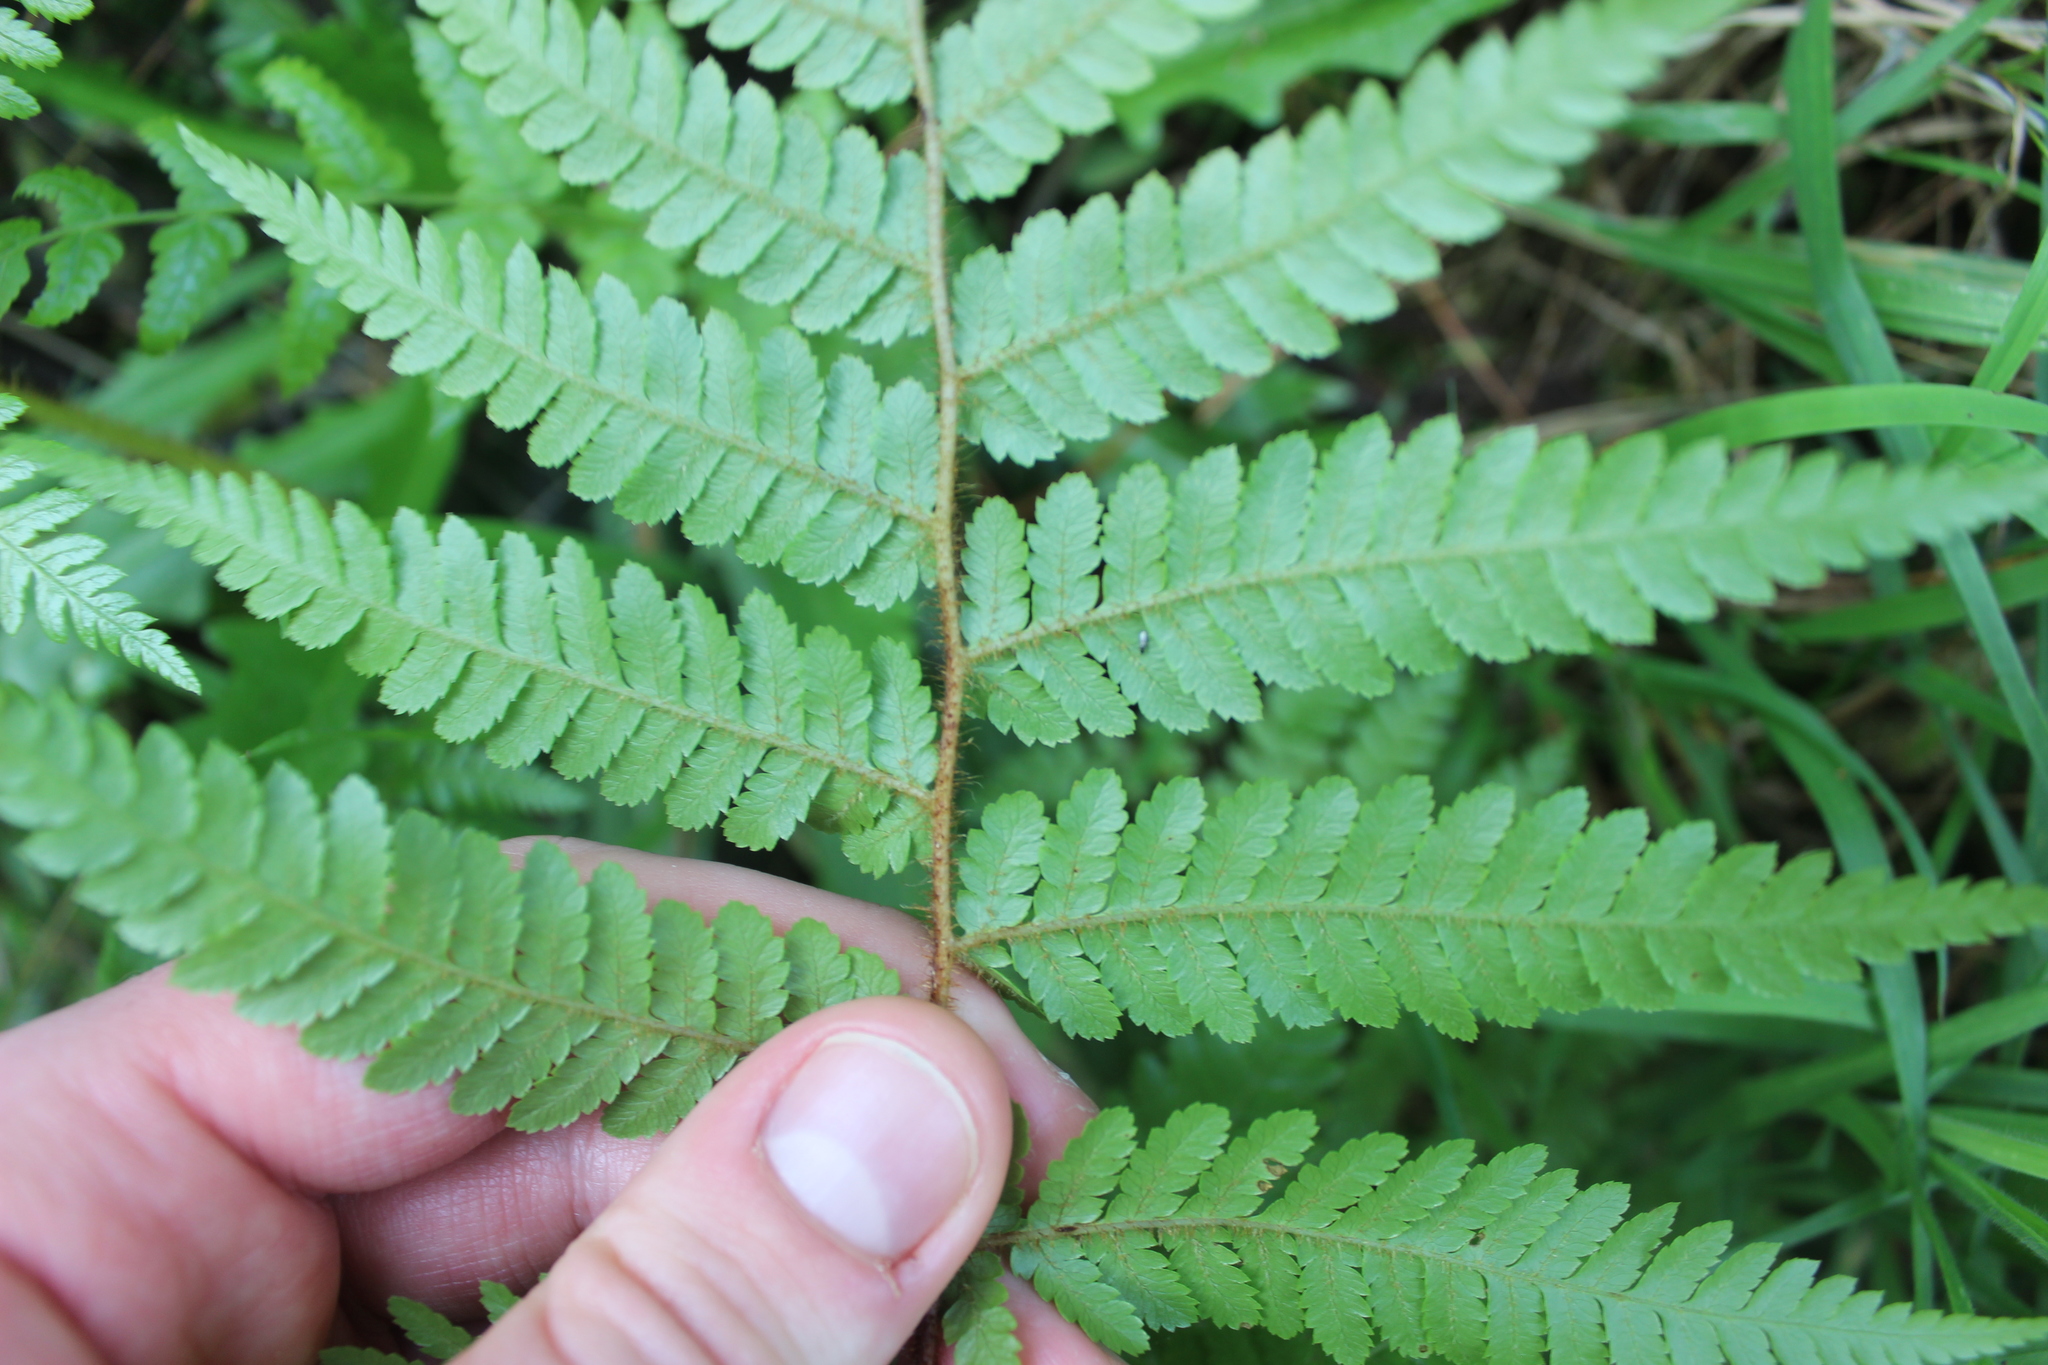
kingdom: Plantae
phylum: Tracheophyta
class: Polypodiopsida
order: Cyatheales
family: Cyatheaceae
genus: Sphaeropteris
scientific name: Sphaeropteris medullaris
